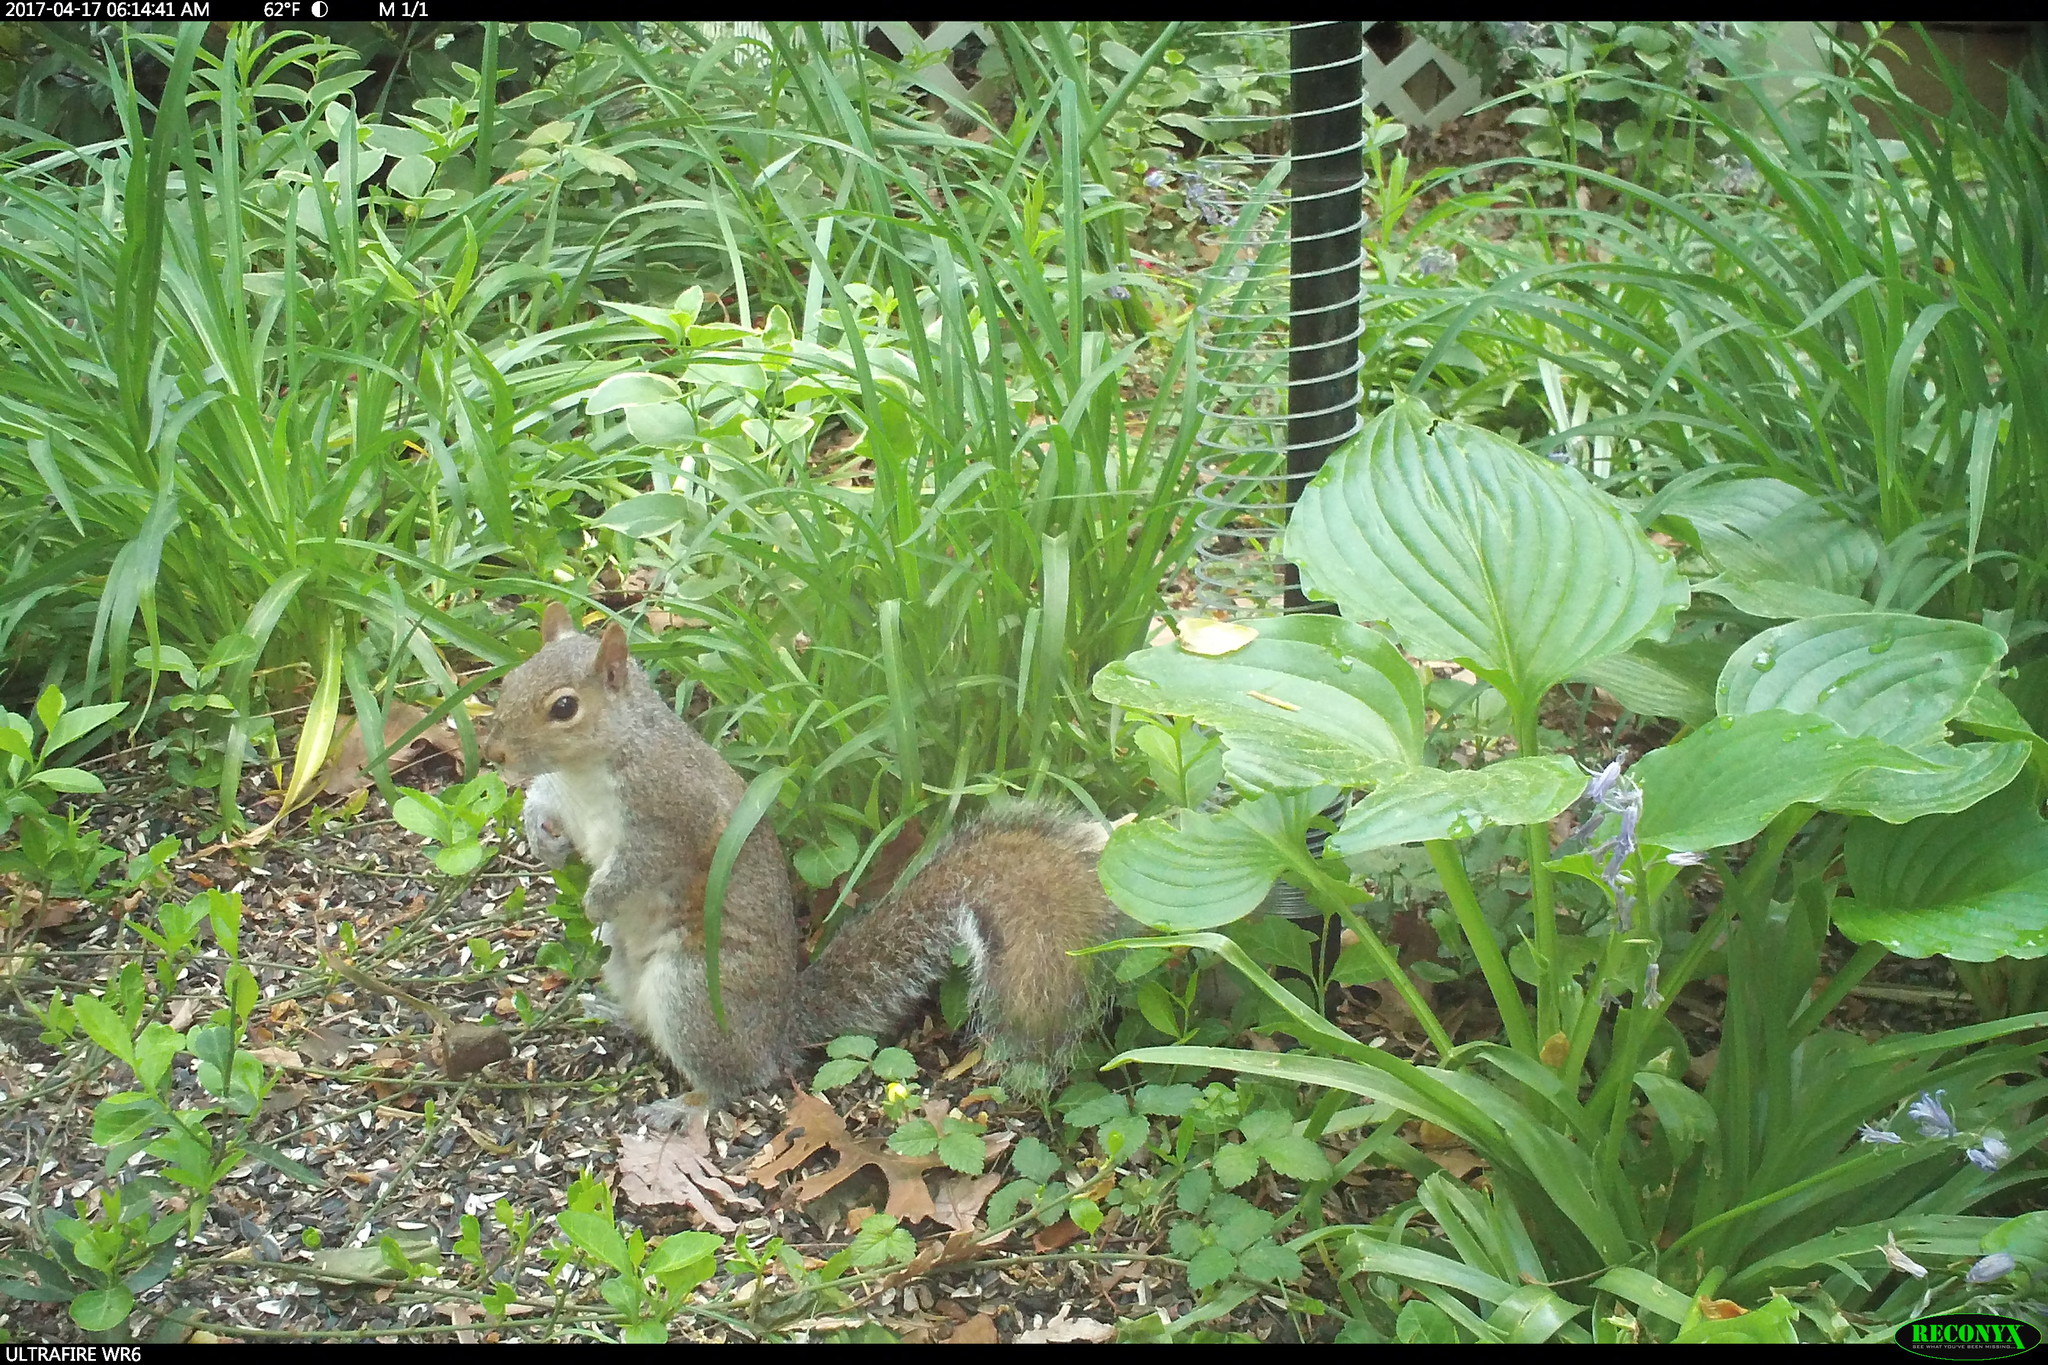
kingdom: Animalia
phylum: Chordata
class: Mammalia
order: Rodentia
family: Sciuridae
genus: Sciurus
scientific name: Sciurus carolinensis
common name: Eastern gray squirrel
